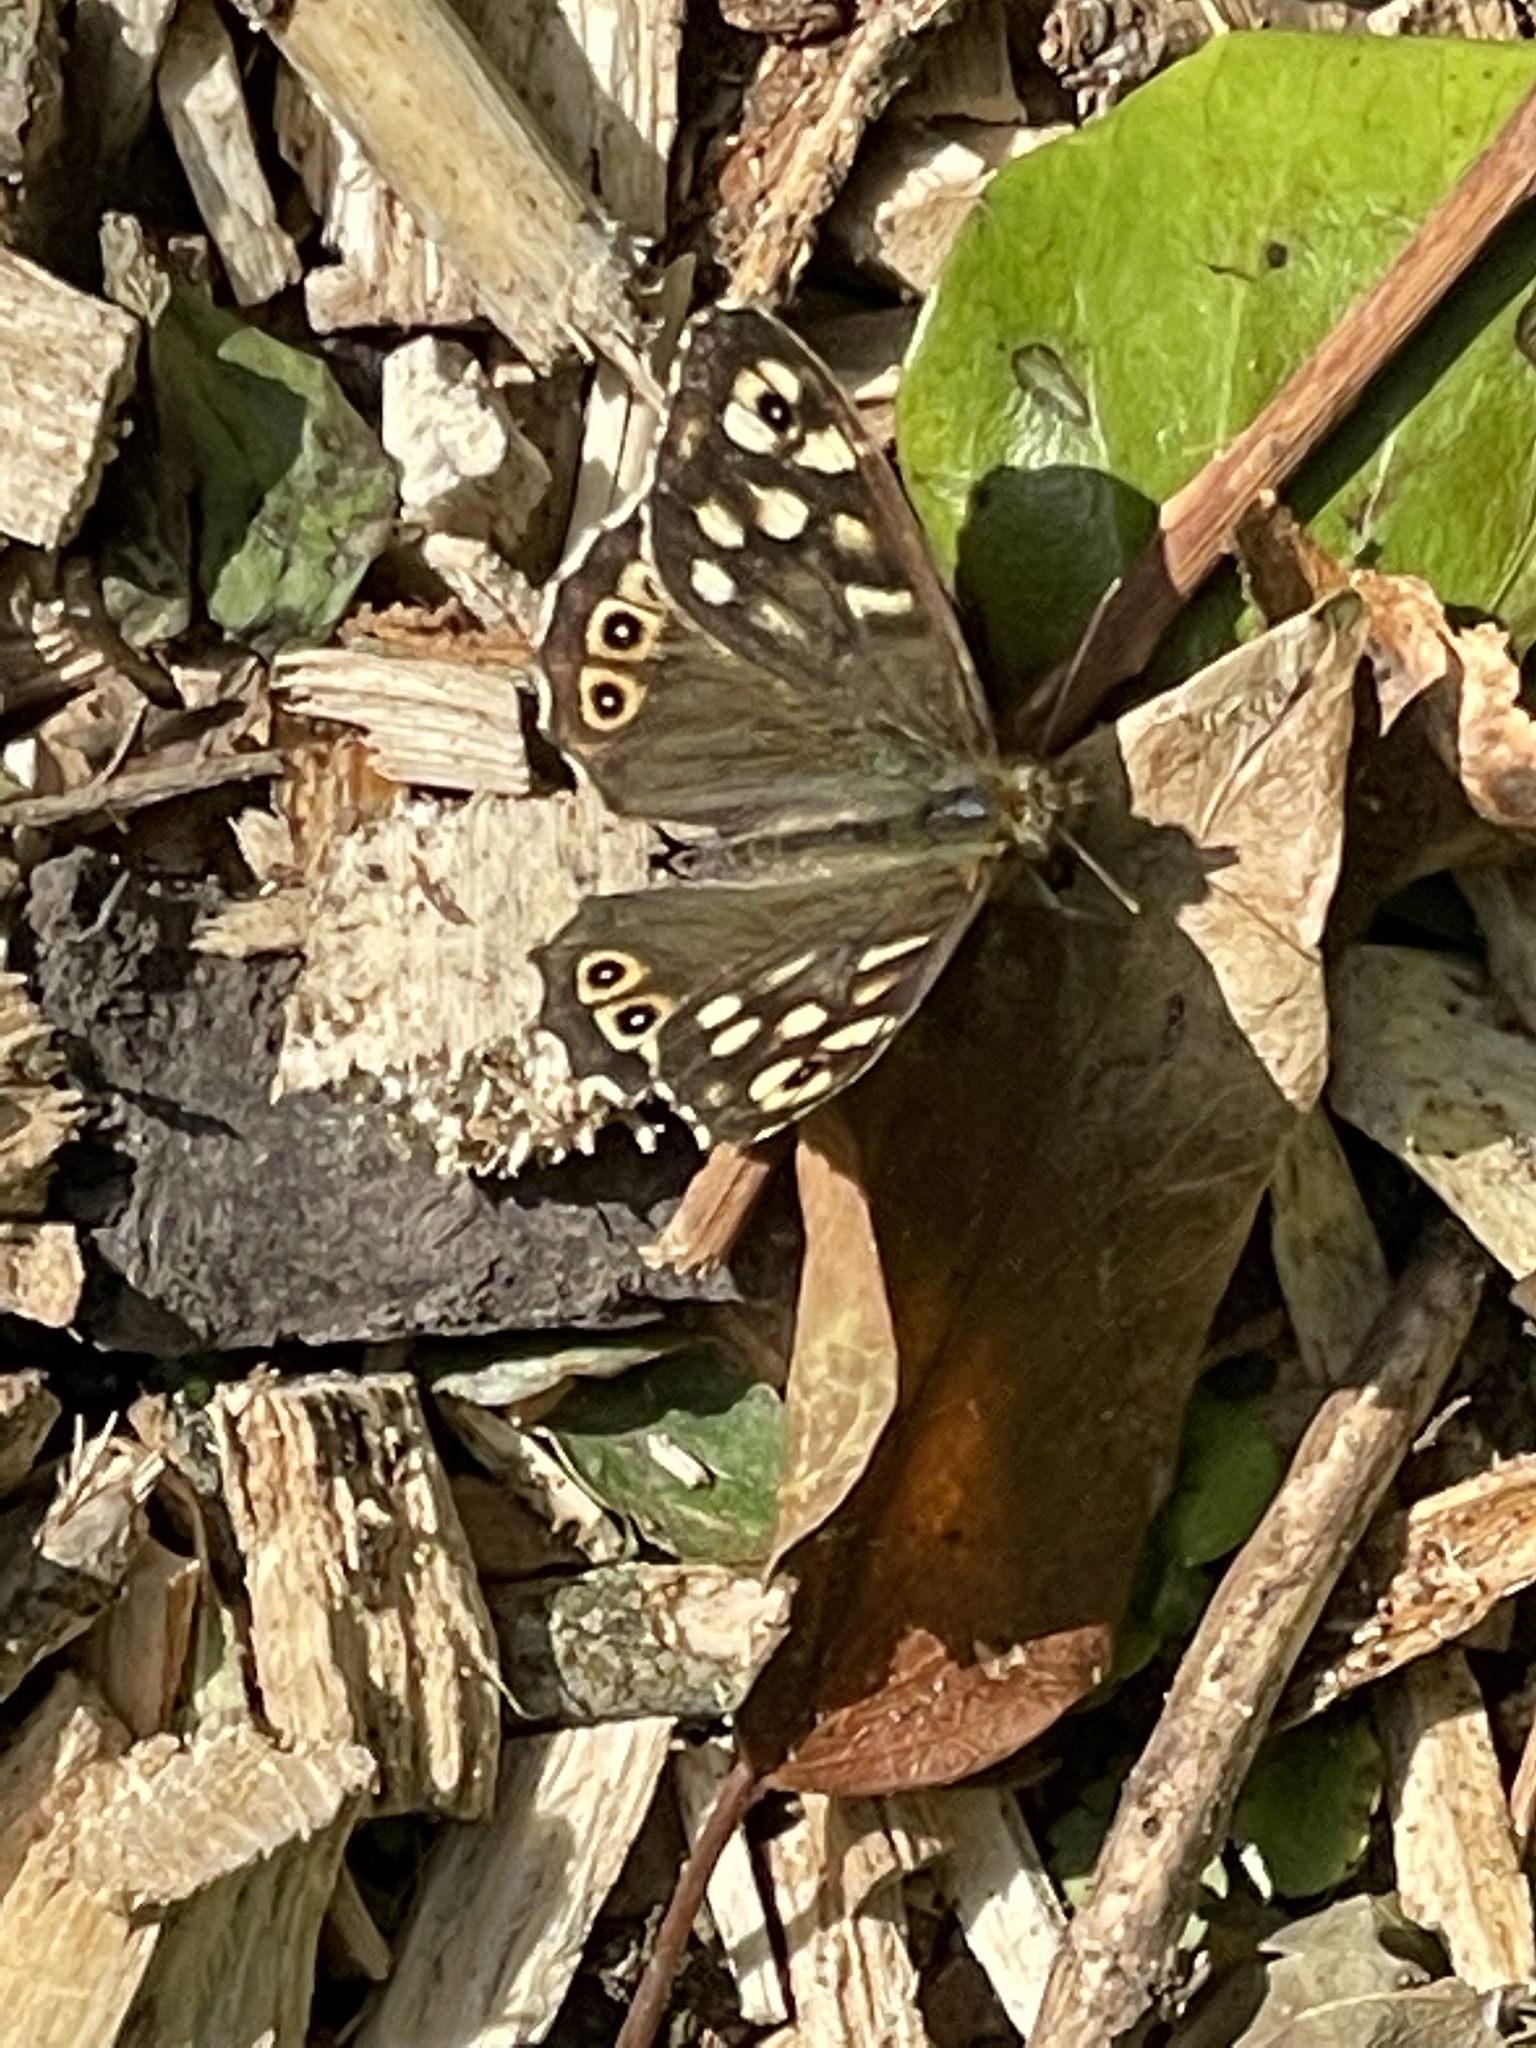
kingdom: Animalia
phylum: Arthropoda
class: Insecta
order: Lepidoptera
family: Nymphalidae
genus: Pararge
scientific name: Pararge aegeria
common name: Speckled wood
